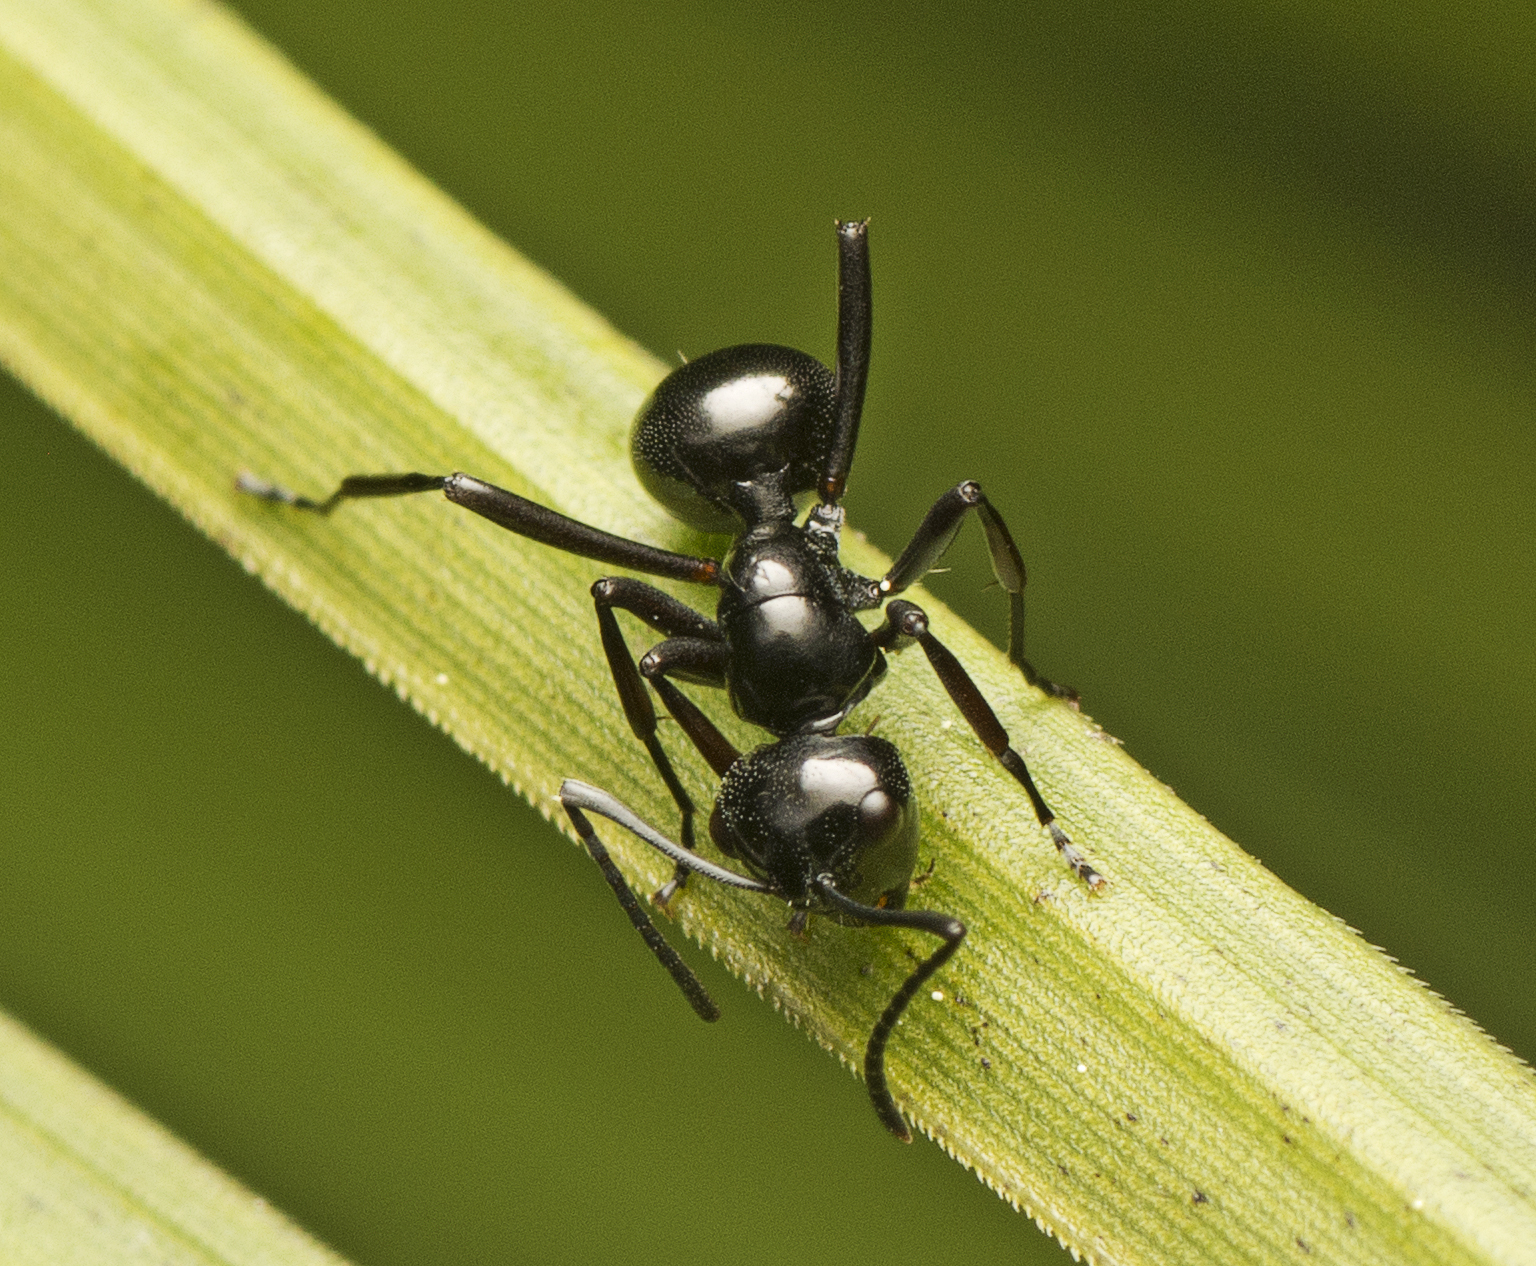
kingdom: Animalia
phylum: Arthropoda
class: Insecta
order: Hymenoptera
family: Formicidae
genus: Polyrhachis
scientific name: Polyrhachis mackayi
